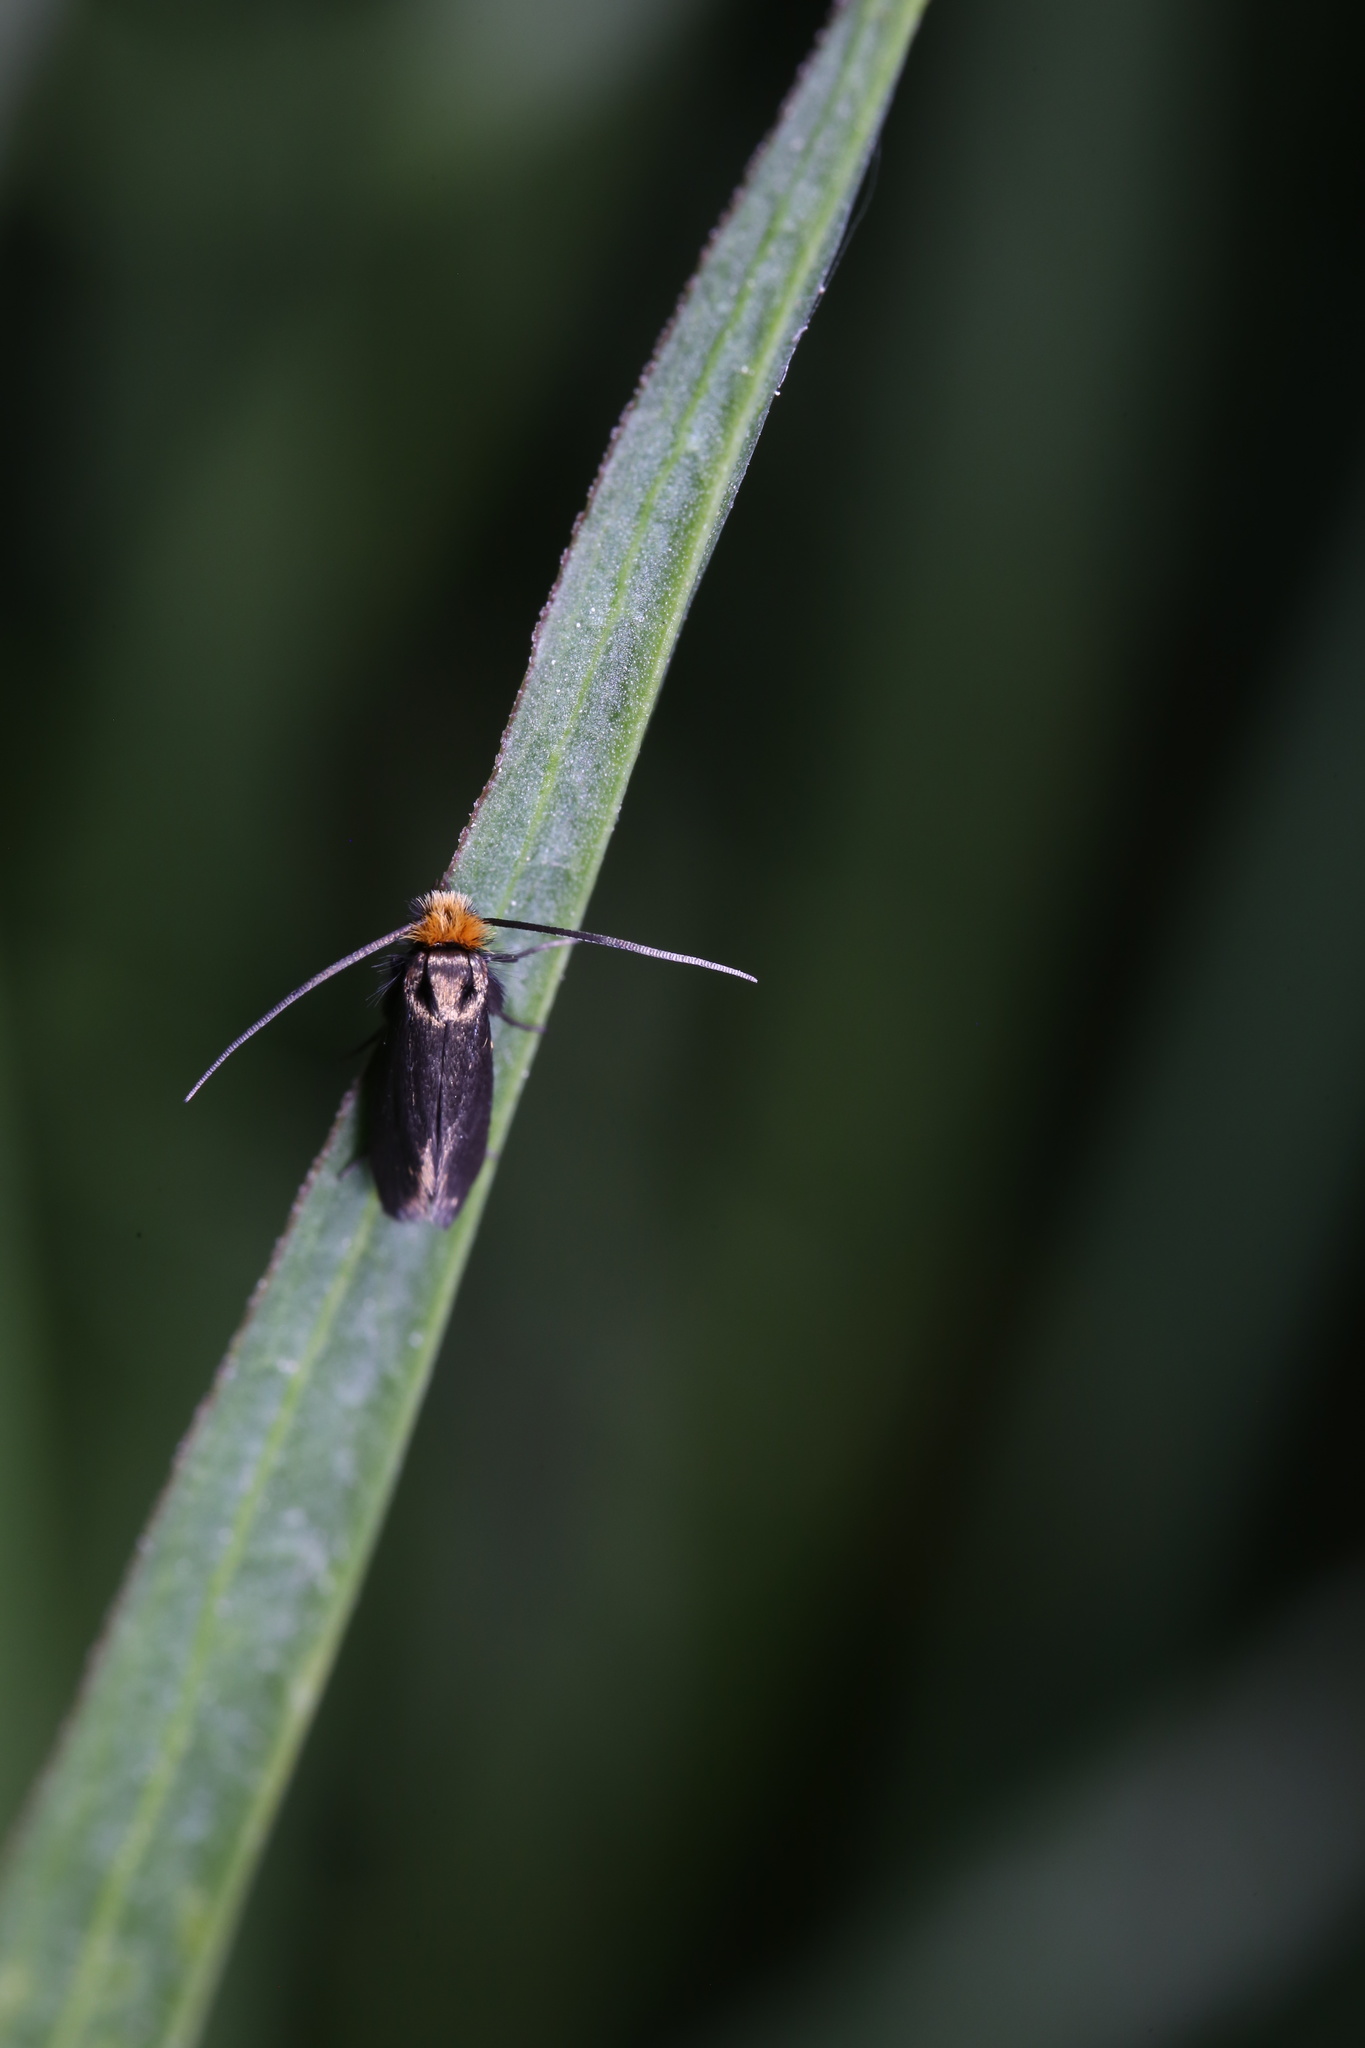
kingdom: Animalia
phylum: Arthropoda
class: Insecta
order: Lepidoptera
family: Adelidae
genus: Cauchas
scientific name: Cauchas rufifrontella
